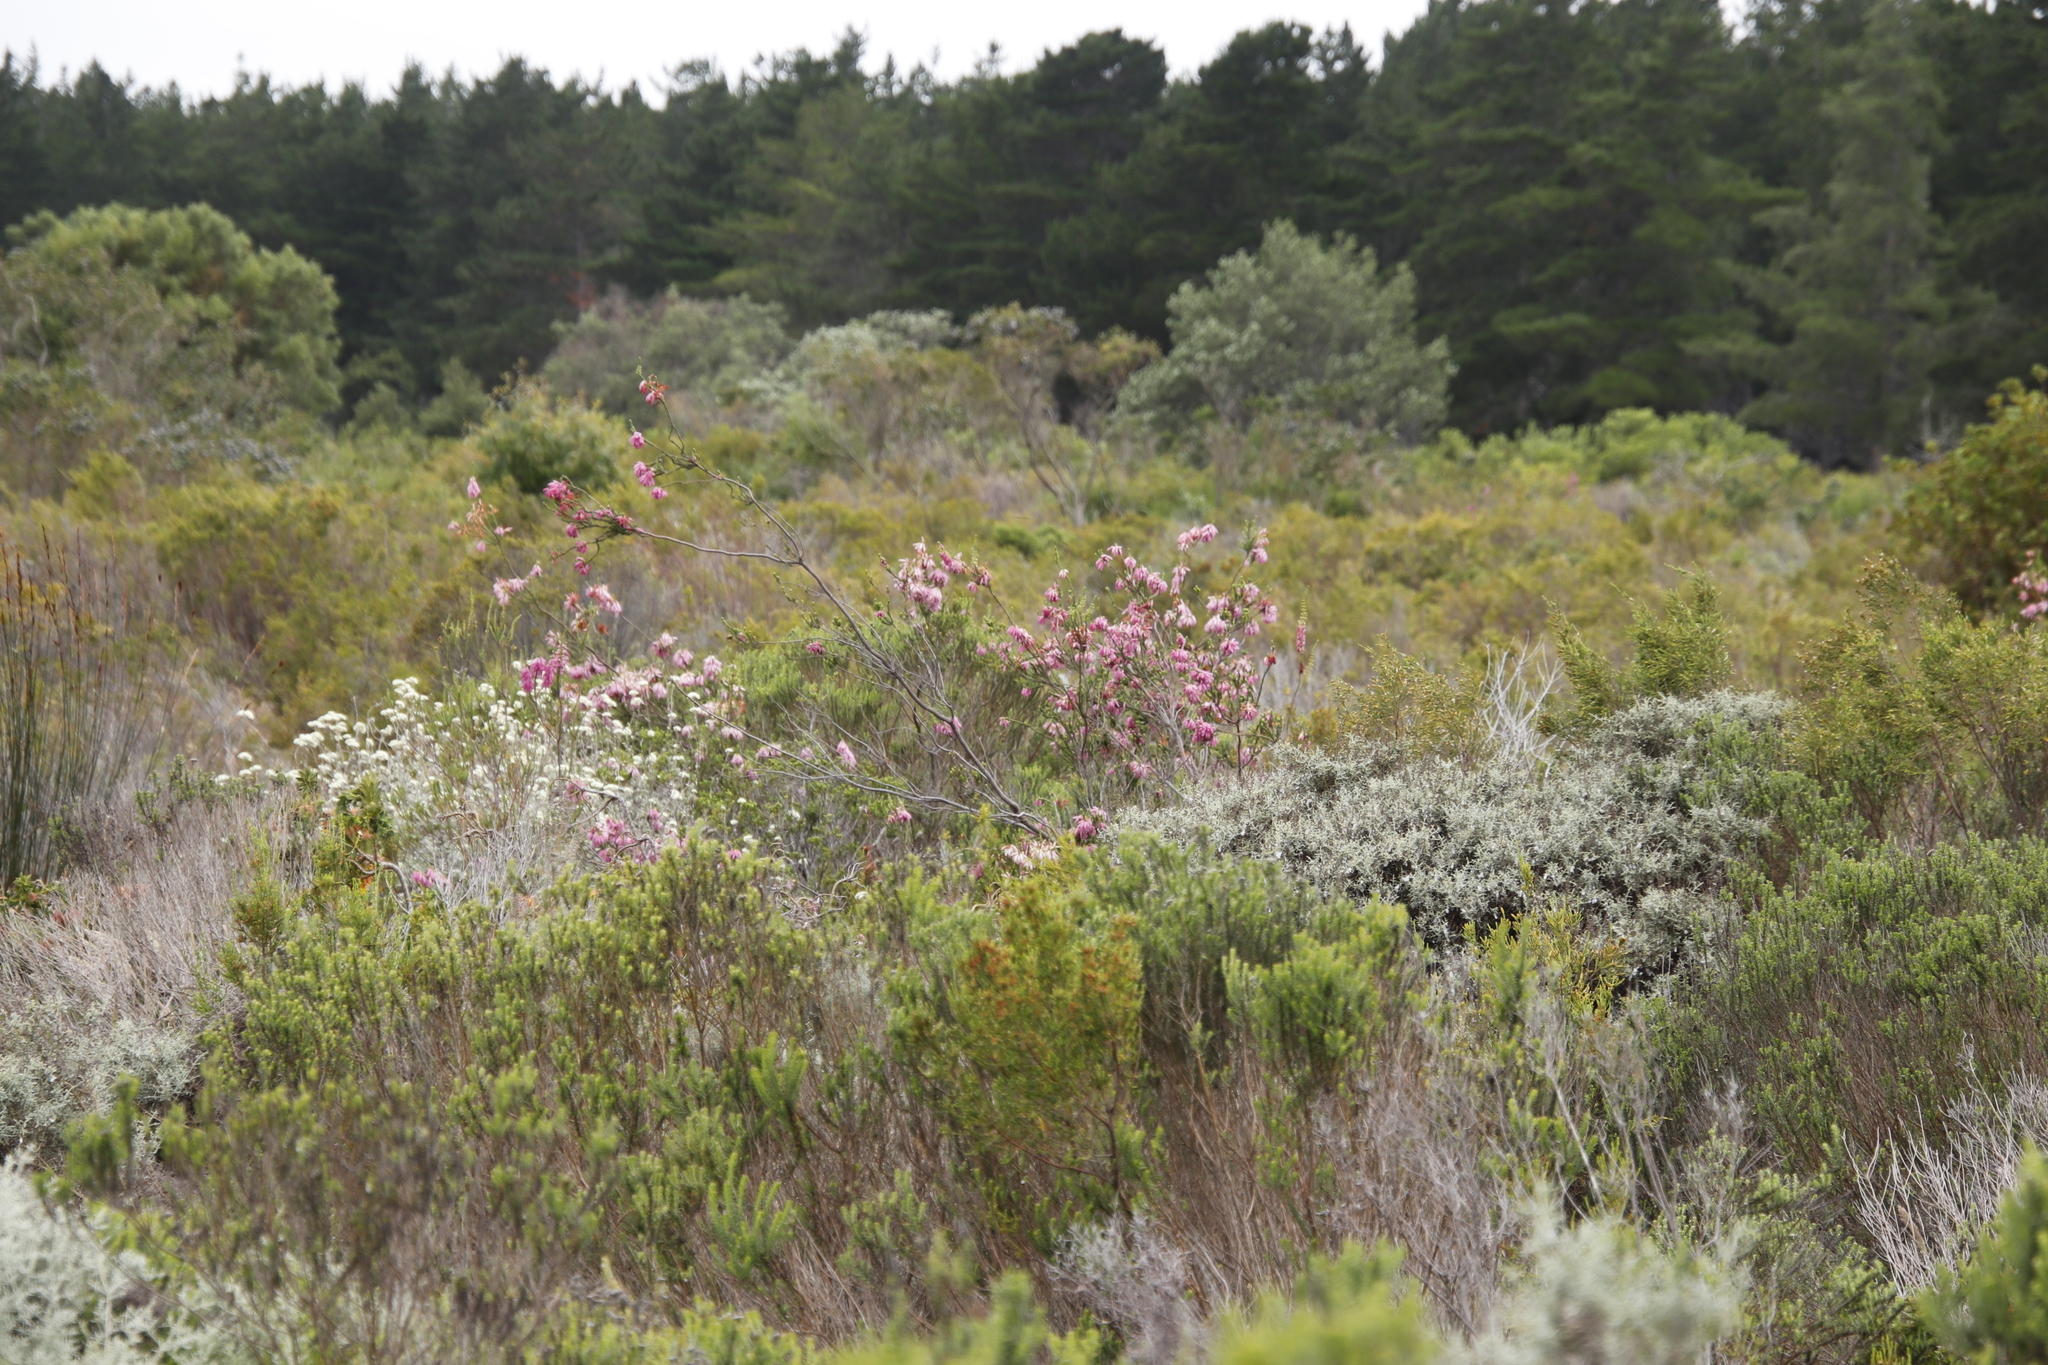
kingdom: Plantae
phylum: Tracheophyta
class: Magnoliopsida
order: Ericales
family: Ericaceae
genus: Erica
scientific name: Erica mammosa
